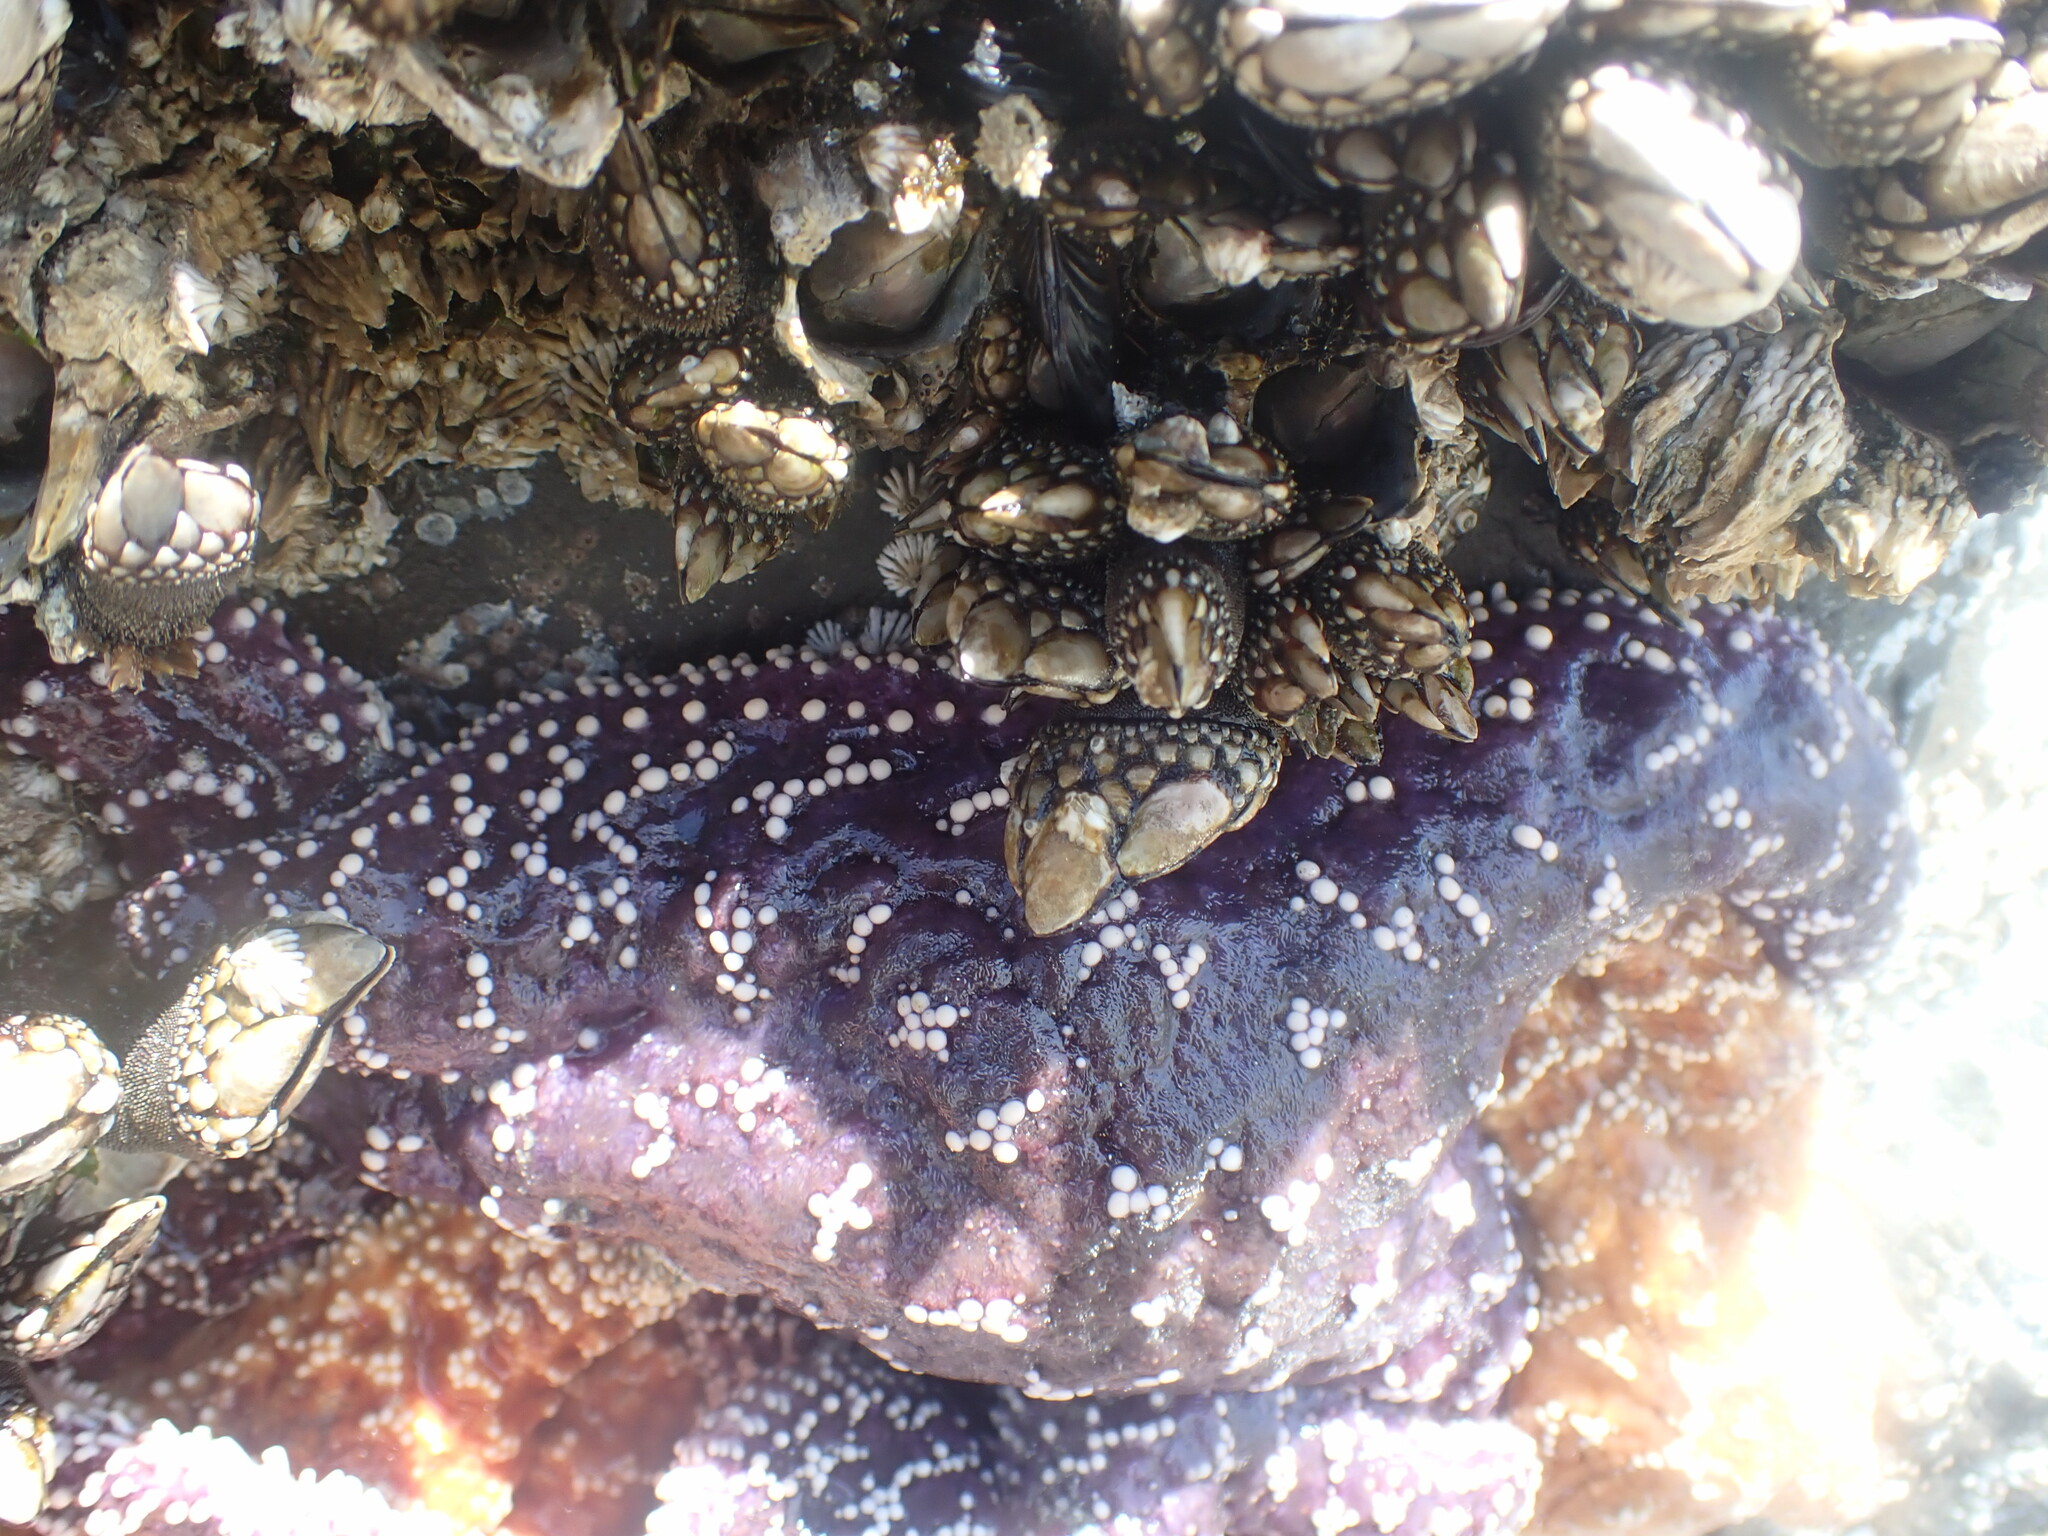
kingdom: Animalia
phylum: Echinodermata
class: Asteroidea
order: Forcipulatida
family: Asteriidae
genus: Pisaster
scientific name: Pisaster ochraceus
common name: Ochre stars
